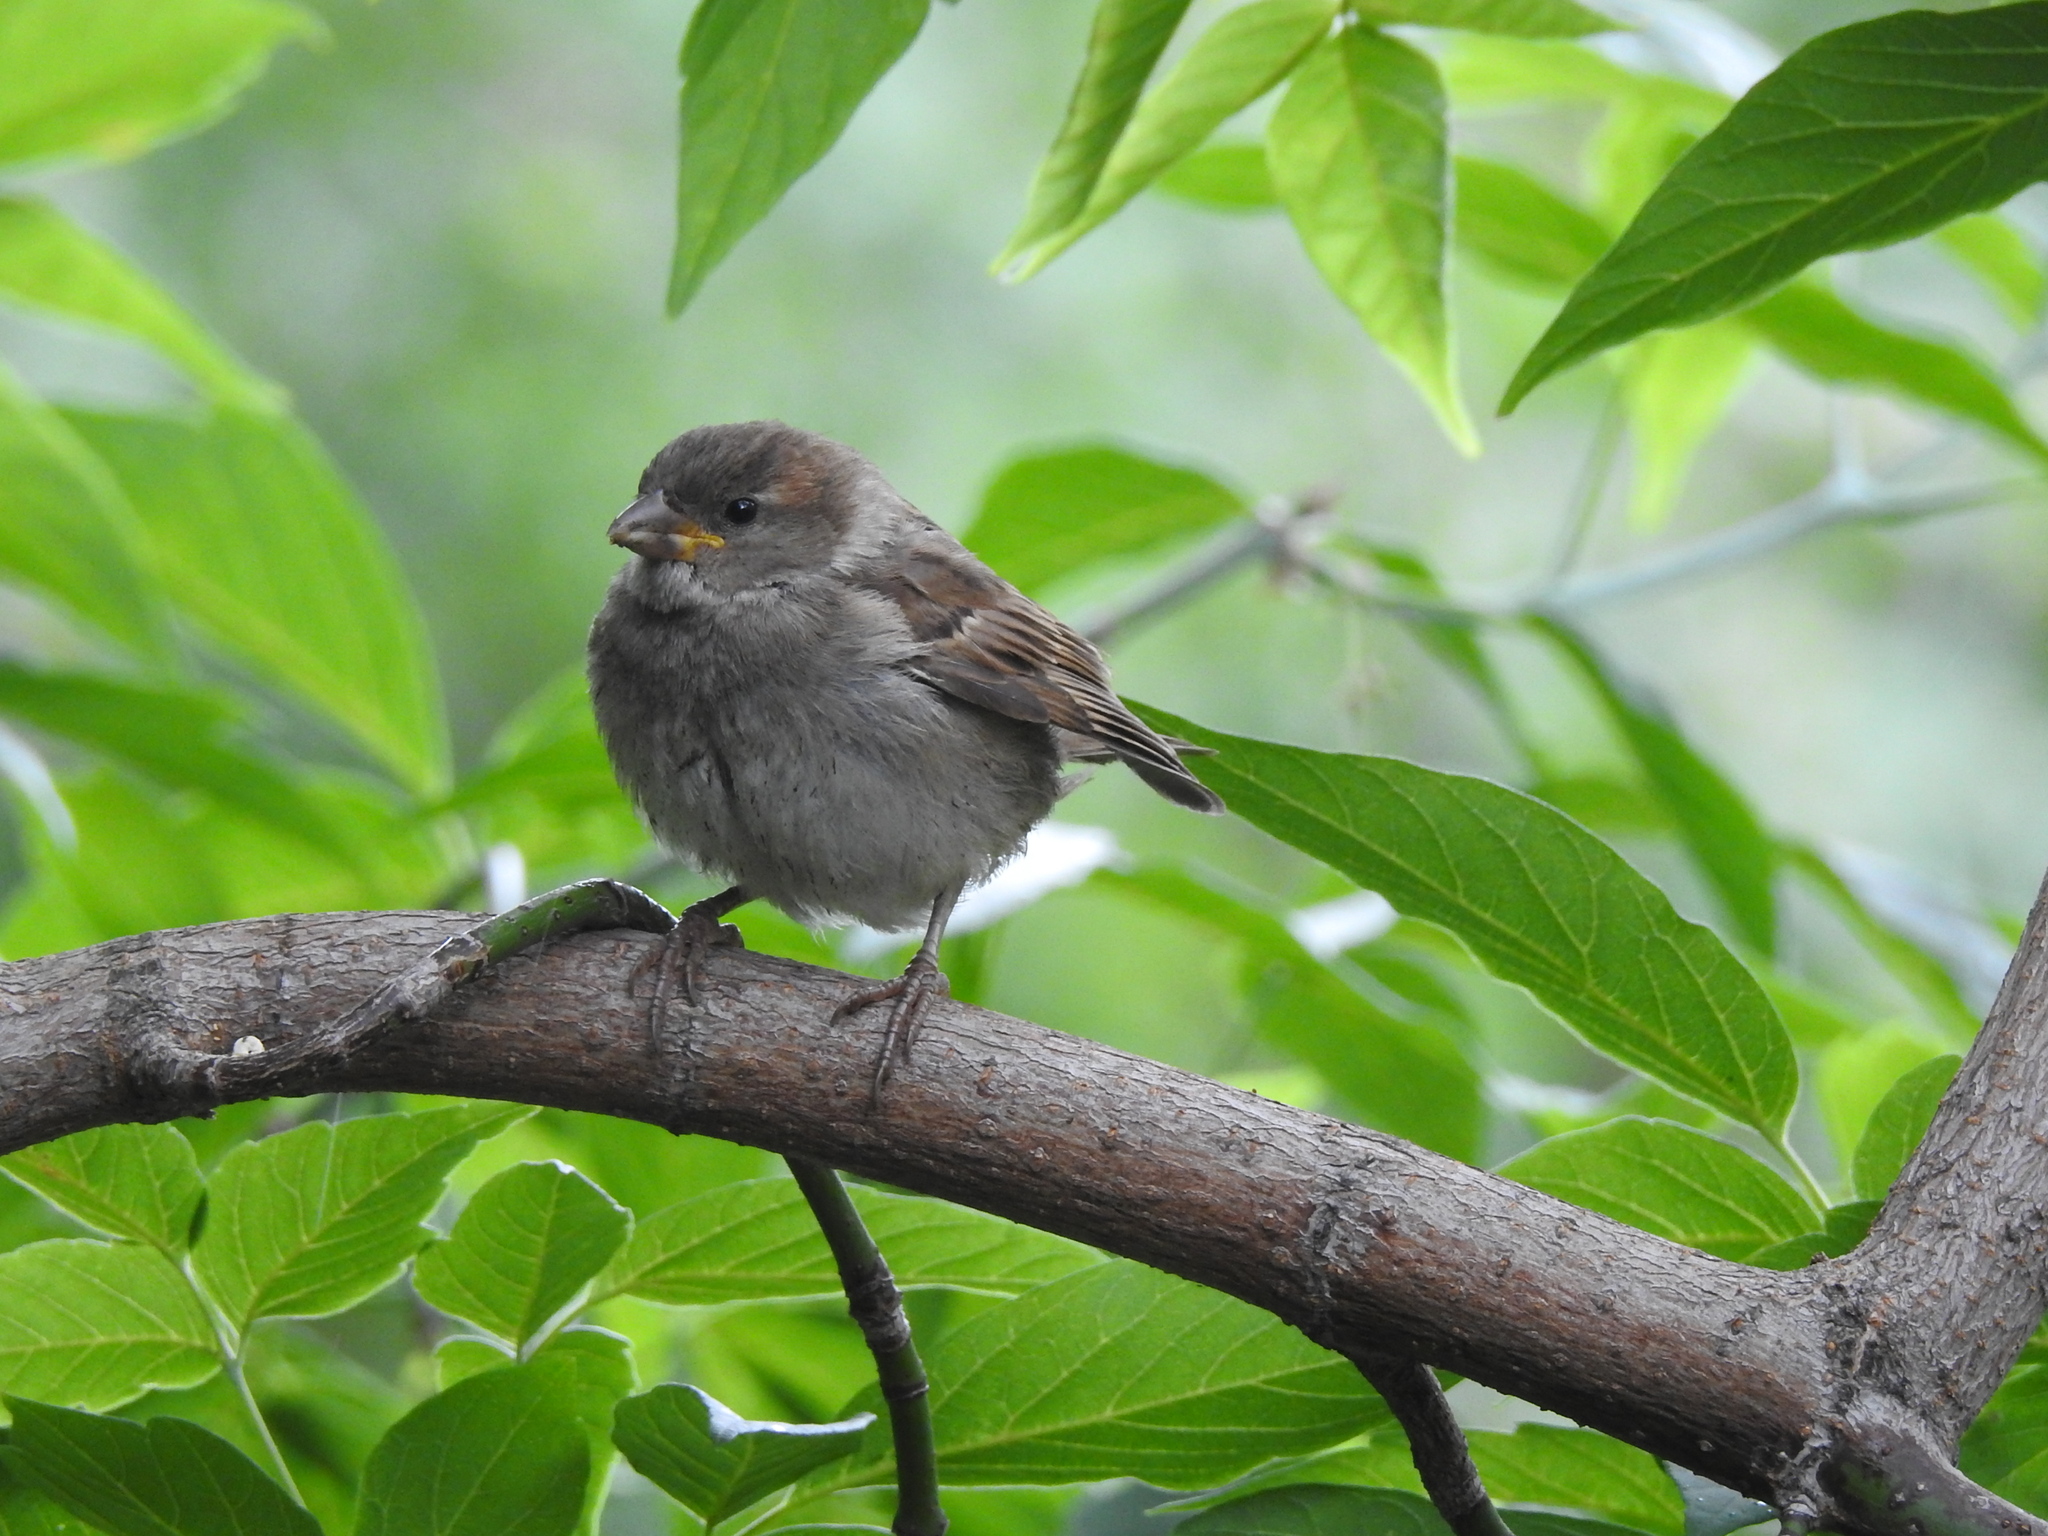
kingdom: Animalia
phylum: Chordata
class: Aves
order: Passeriformes
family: Passeridae
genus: Passer
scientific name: Passer domesticus
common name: House sparrow
